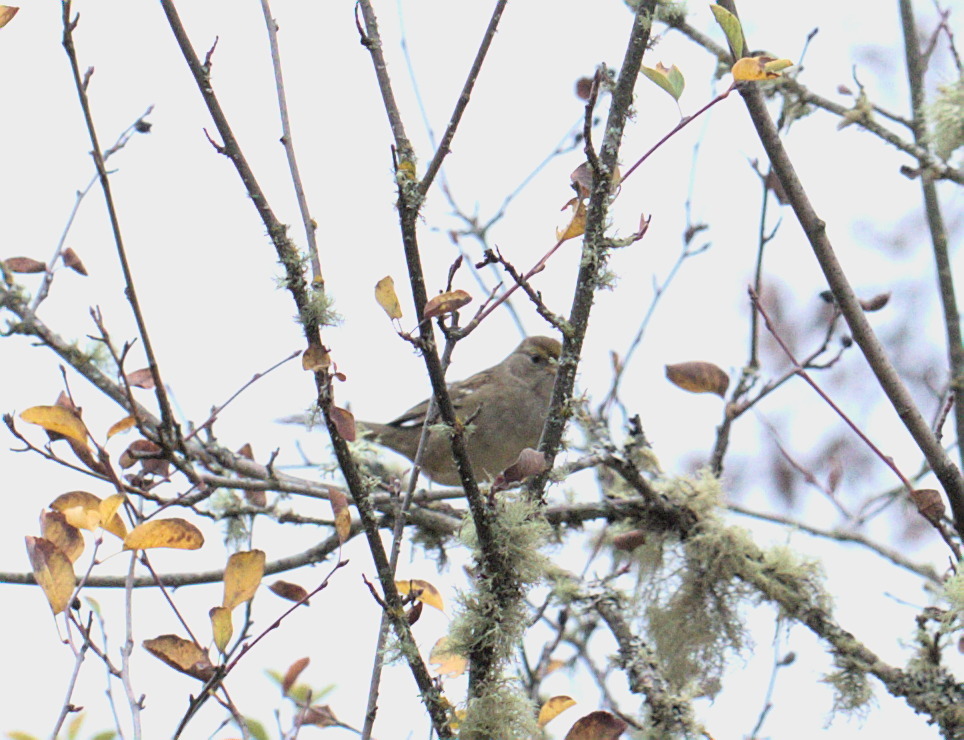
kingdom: Animalia
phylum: Chordata
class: Aves
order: Passeriformes
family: Passerellidae
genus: Zonotrichia
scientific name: Zonotrichia atricapilla
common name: Golden-crowned sparrow
